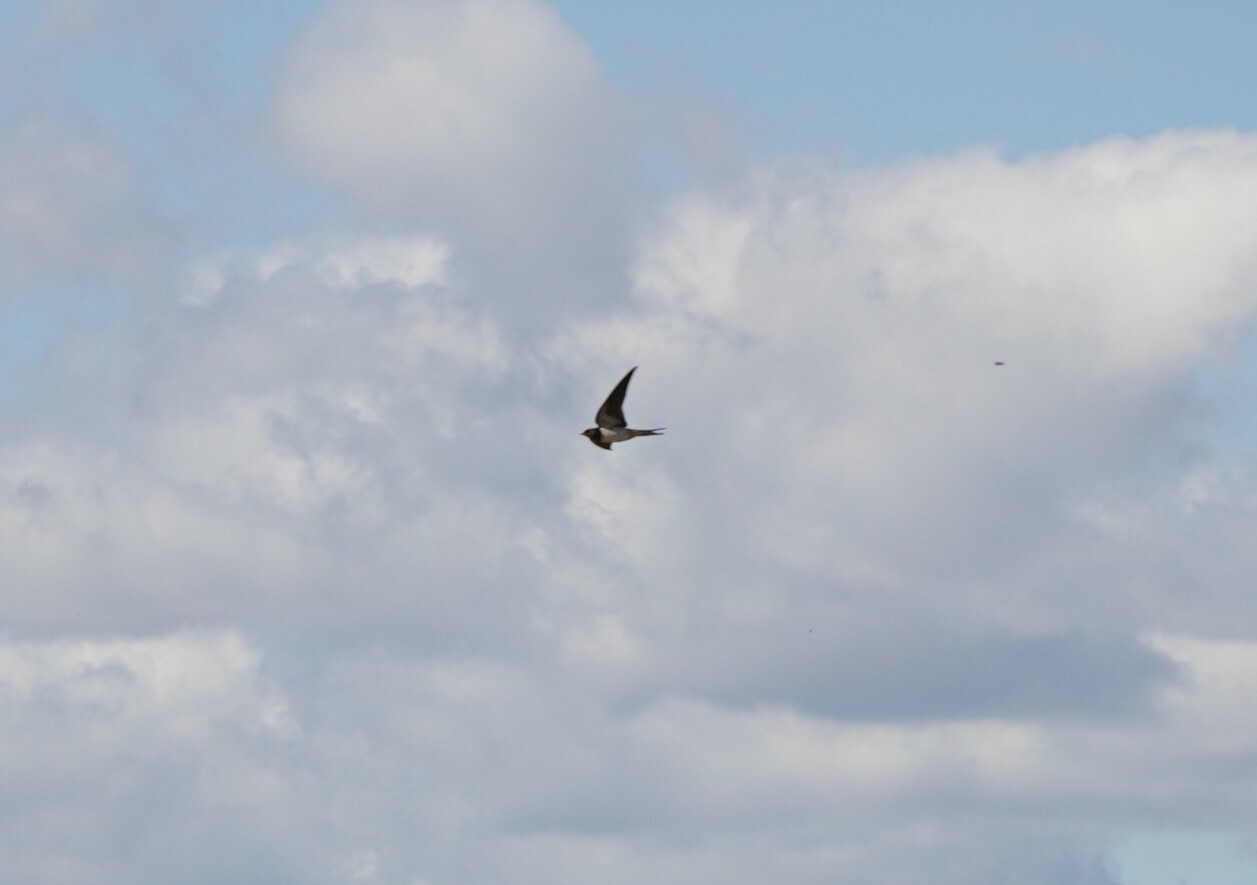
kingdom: Animalia
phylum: Chordata
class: Aves
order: Passeriformes
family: Hirundinidae
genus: Hirundo
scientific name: Hirundo rustica
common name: Barn swallow
